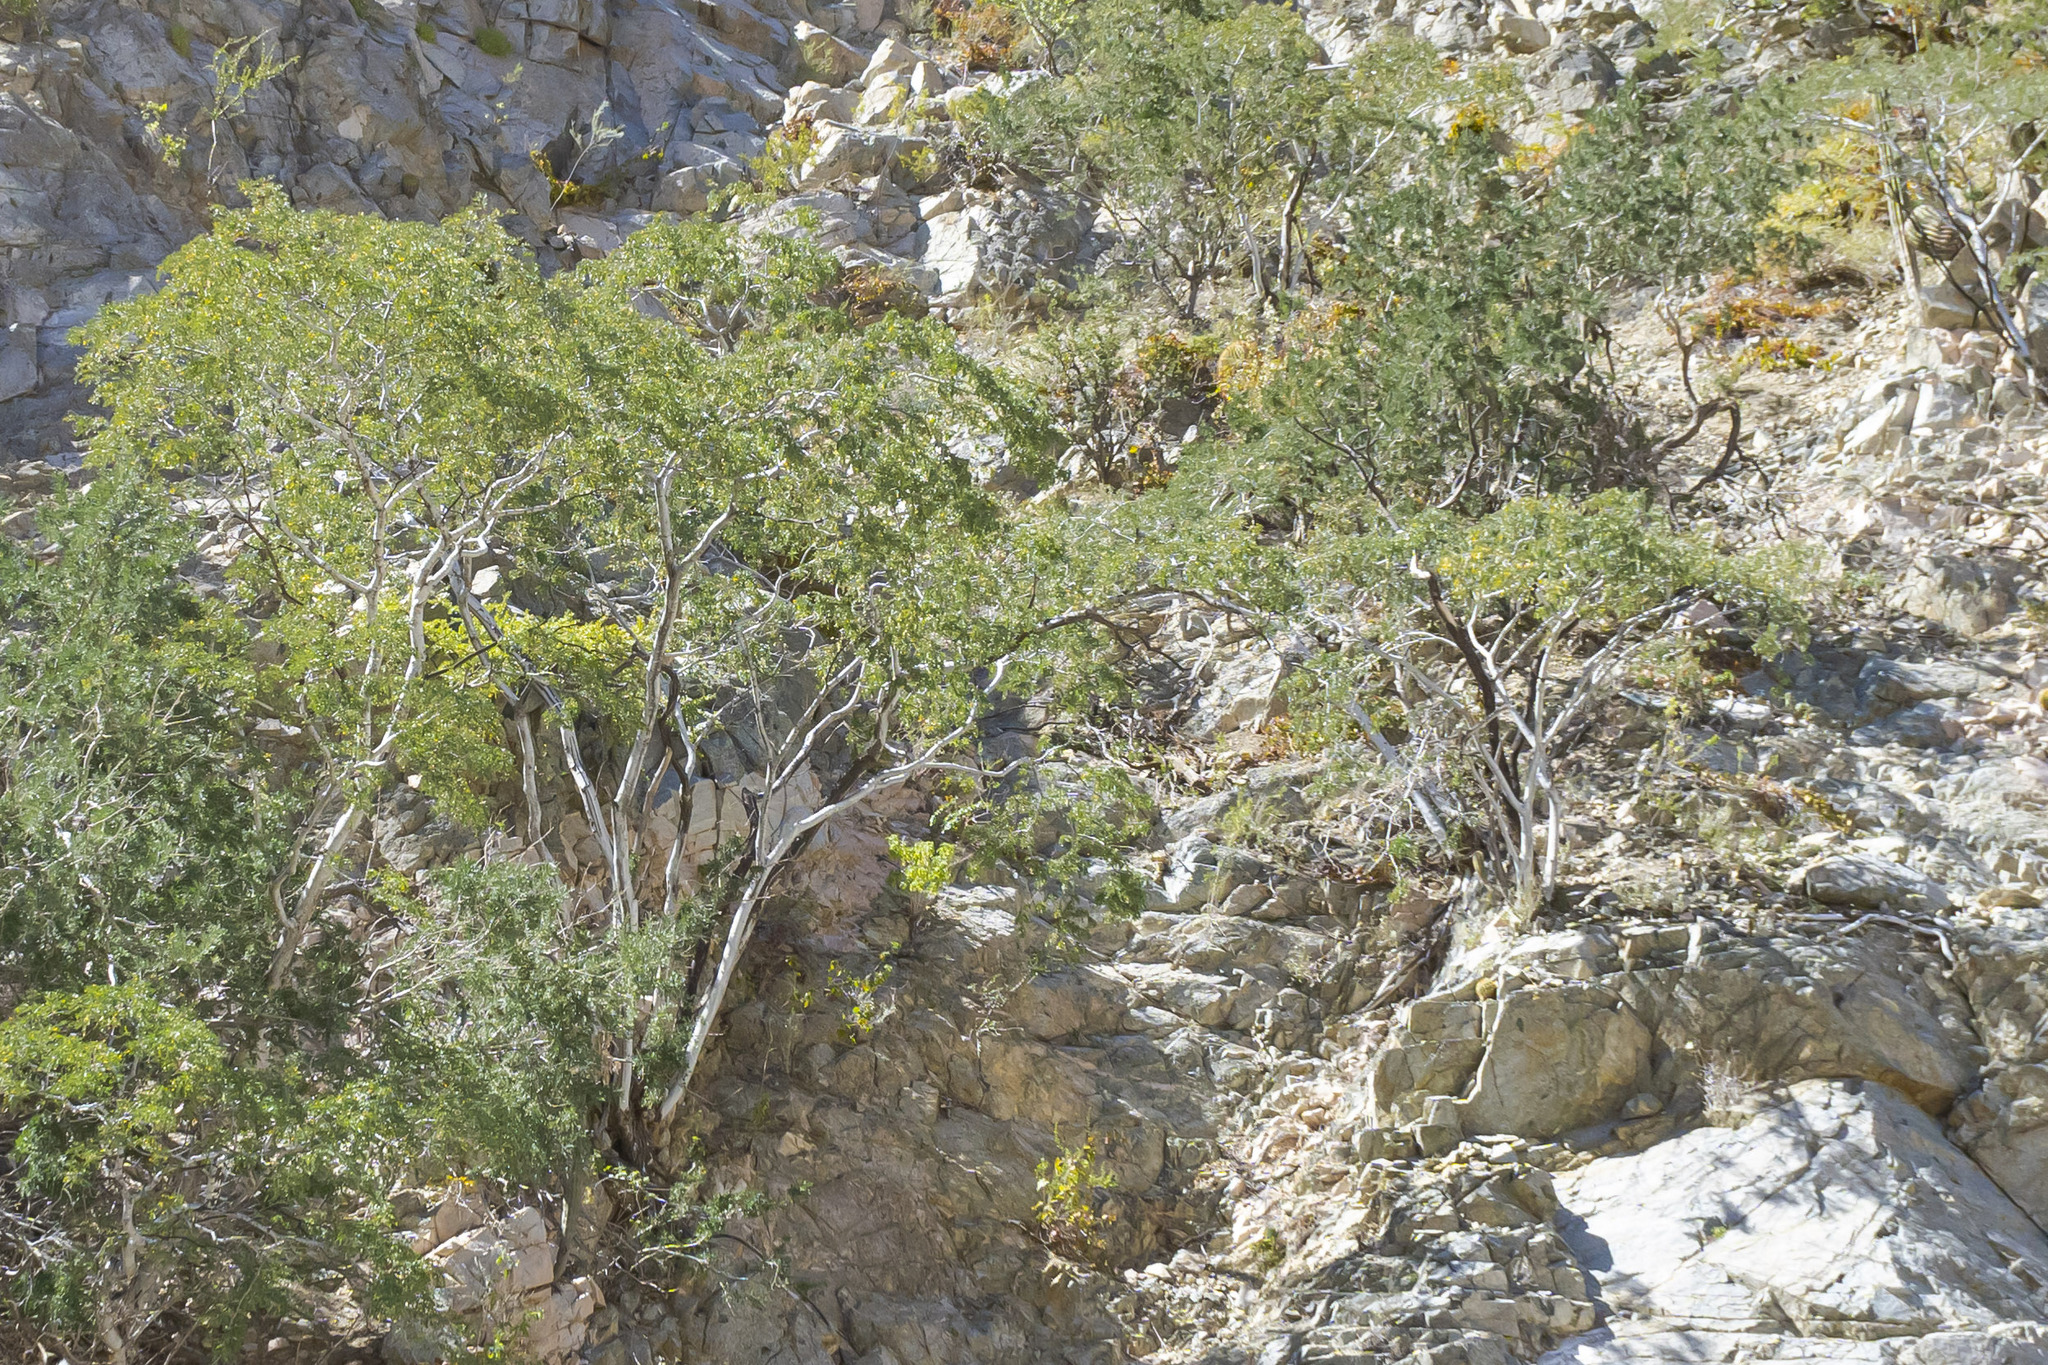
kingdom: Plantae
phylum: Tracheophyta
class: Magnoliopsida
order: Fabales
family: Fabaceae
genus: Lysiloma
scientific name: Lysiloma candidum
